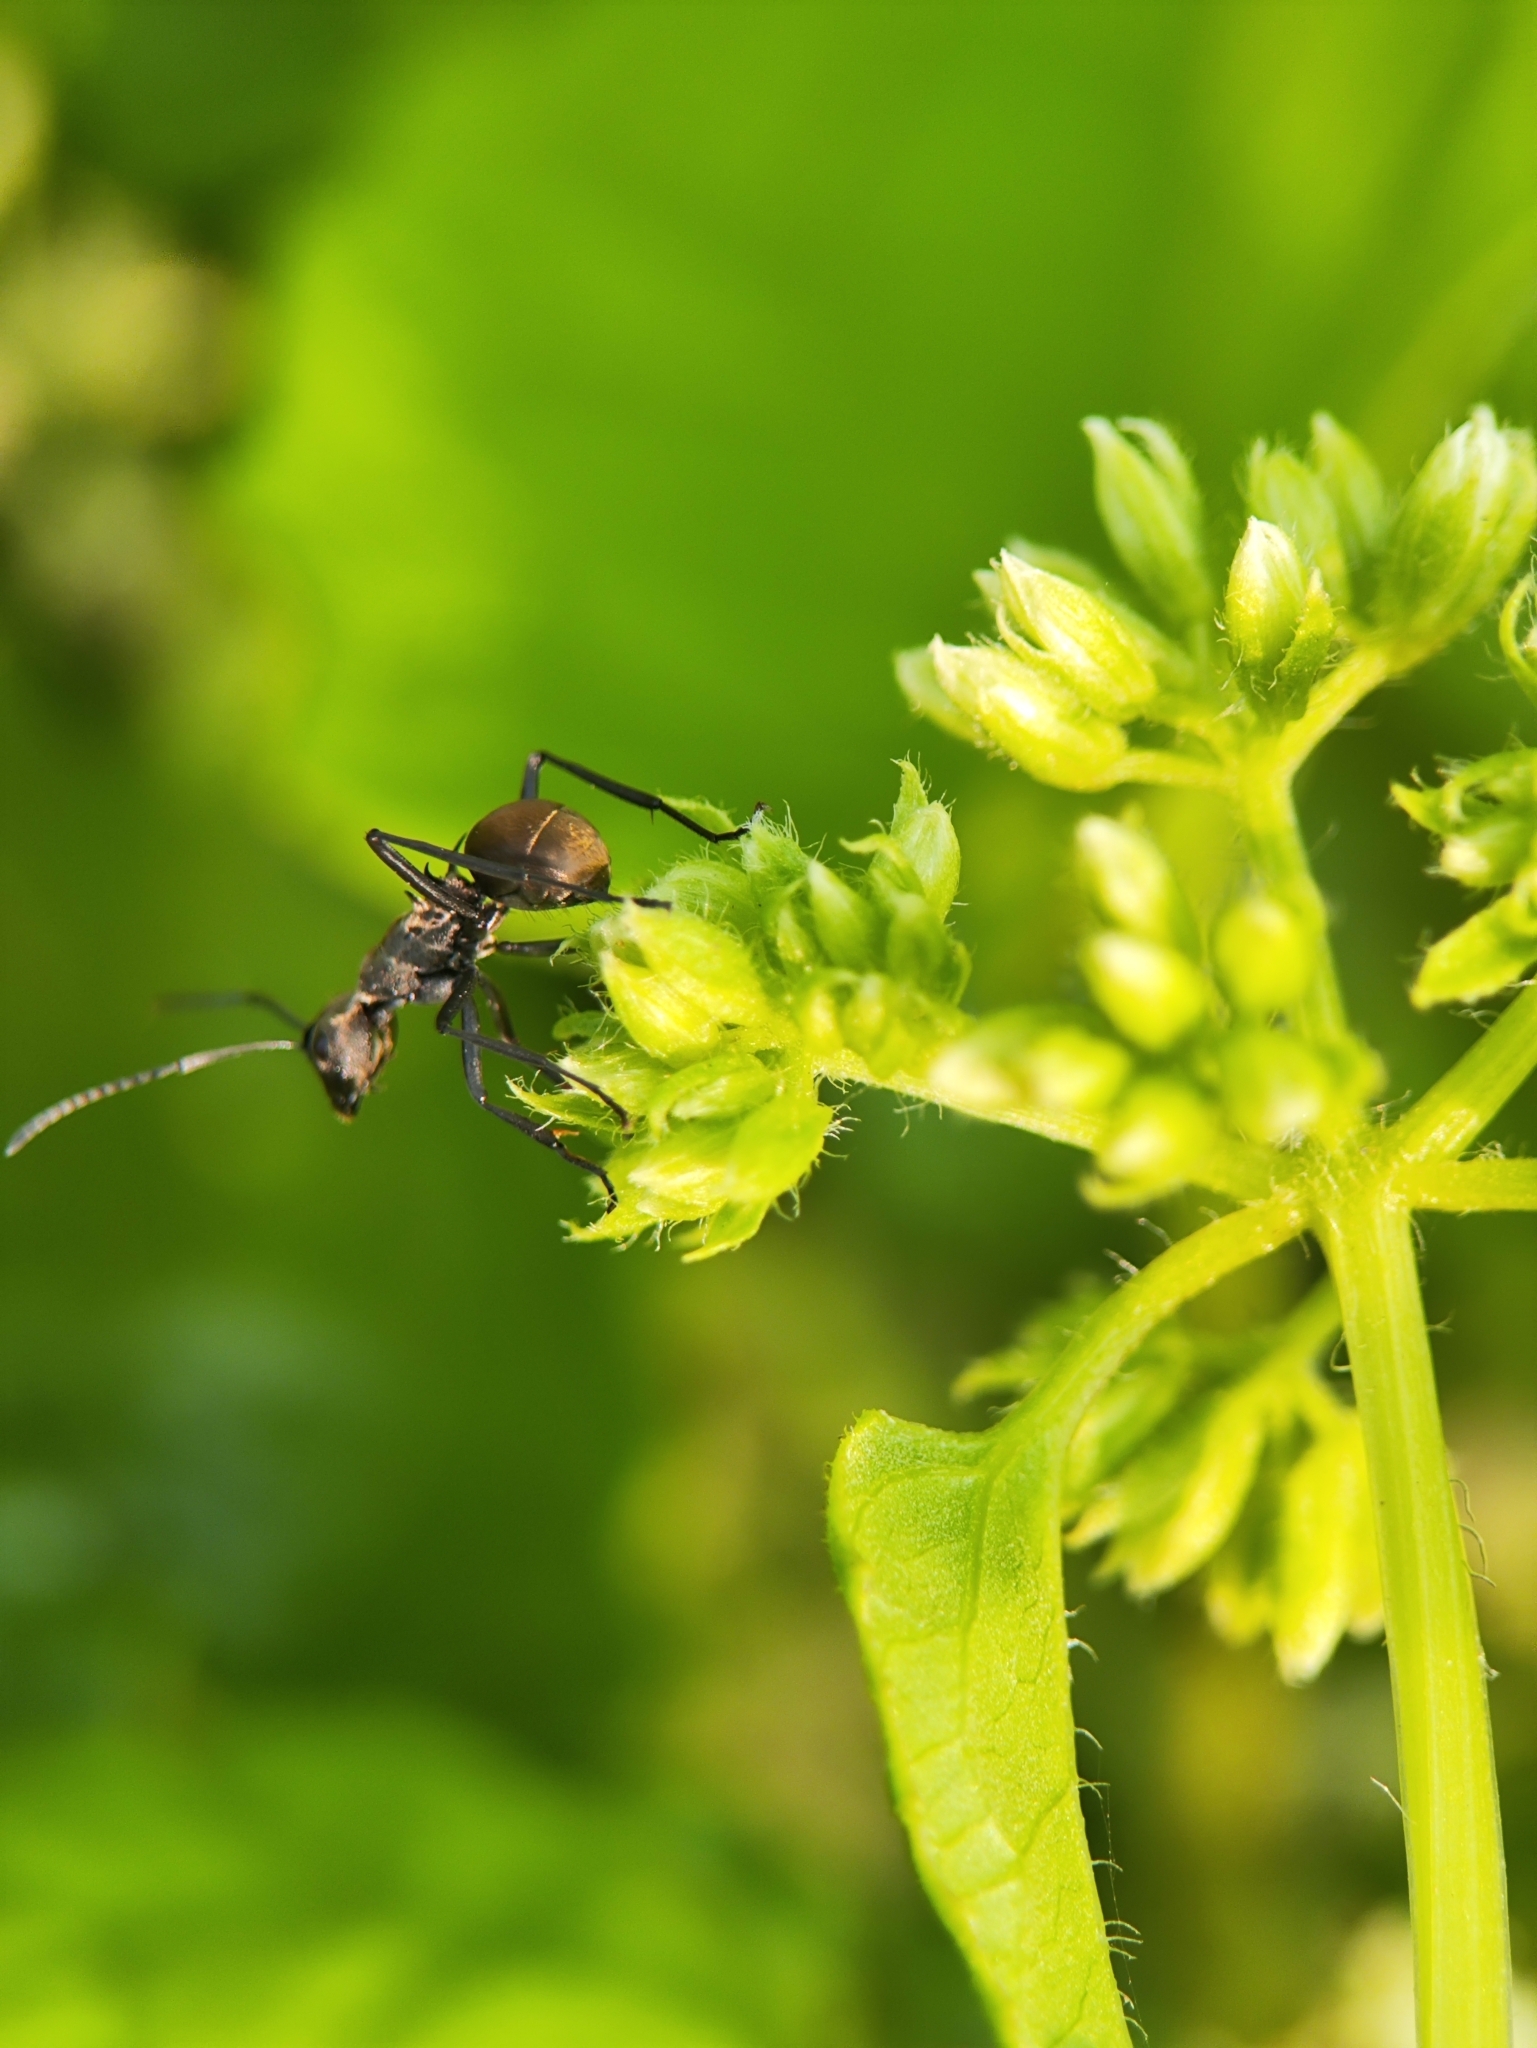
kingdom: Animalia
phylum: Arthropoda
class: Insecta
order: Hymenoptera
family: Formicidae
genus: Polyrhachis
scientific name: Polyrhachis dives
